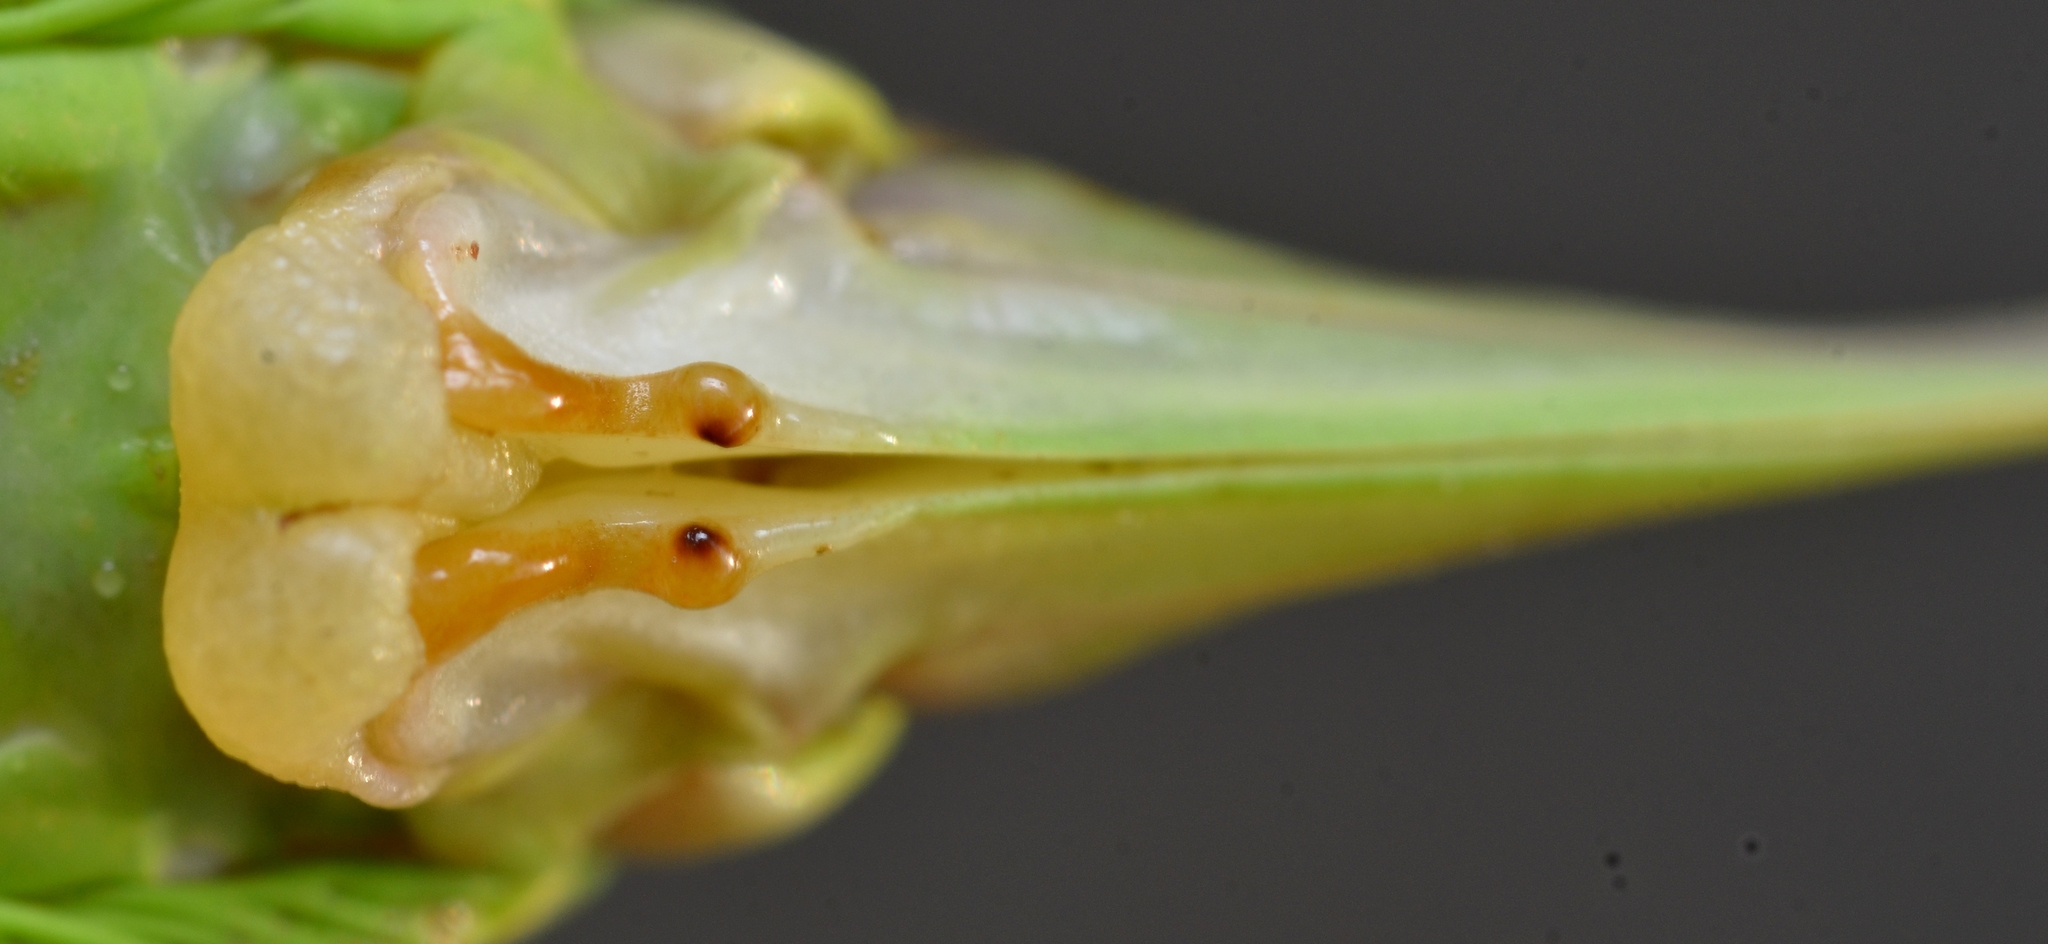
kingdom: Animalia
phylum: Arthropoda
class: Insecta
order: Orthoptera
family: Tettigoniidae
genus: Ephippiger
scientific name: Ephippiger diurnus
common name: Western saddle bush-cricket
